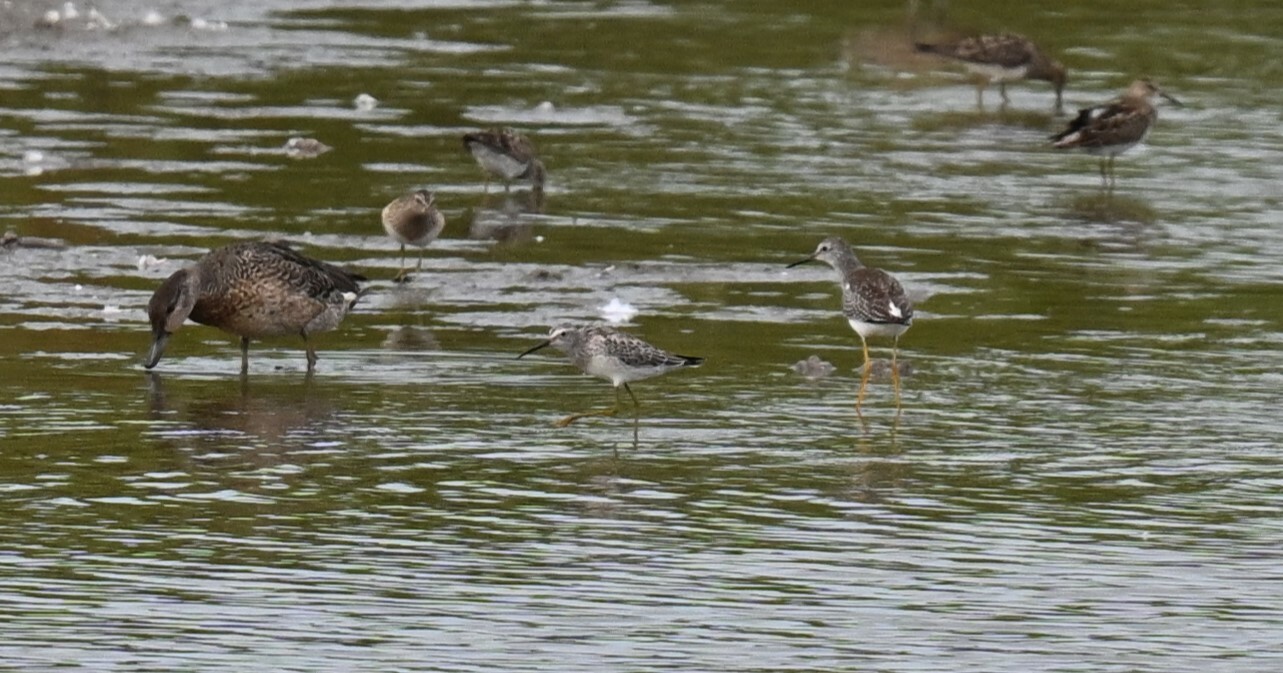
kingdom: Animalia
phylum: Chordata
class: Aves
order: Charadriiformes
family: Scolopacidae
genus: Calidris
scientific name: Calidris himantopus
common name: Stilt sandpiper
